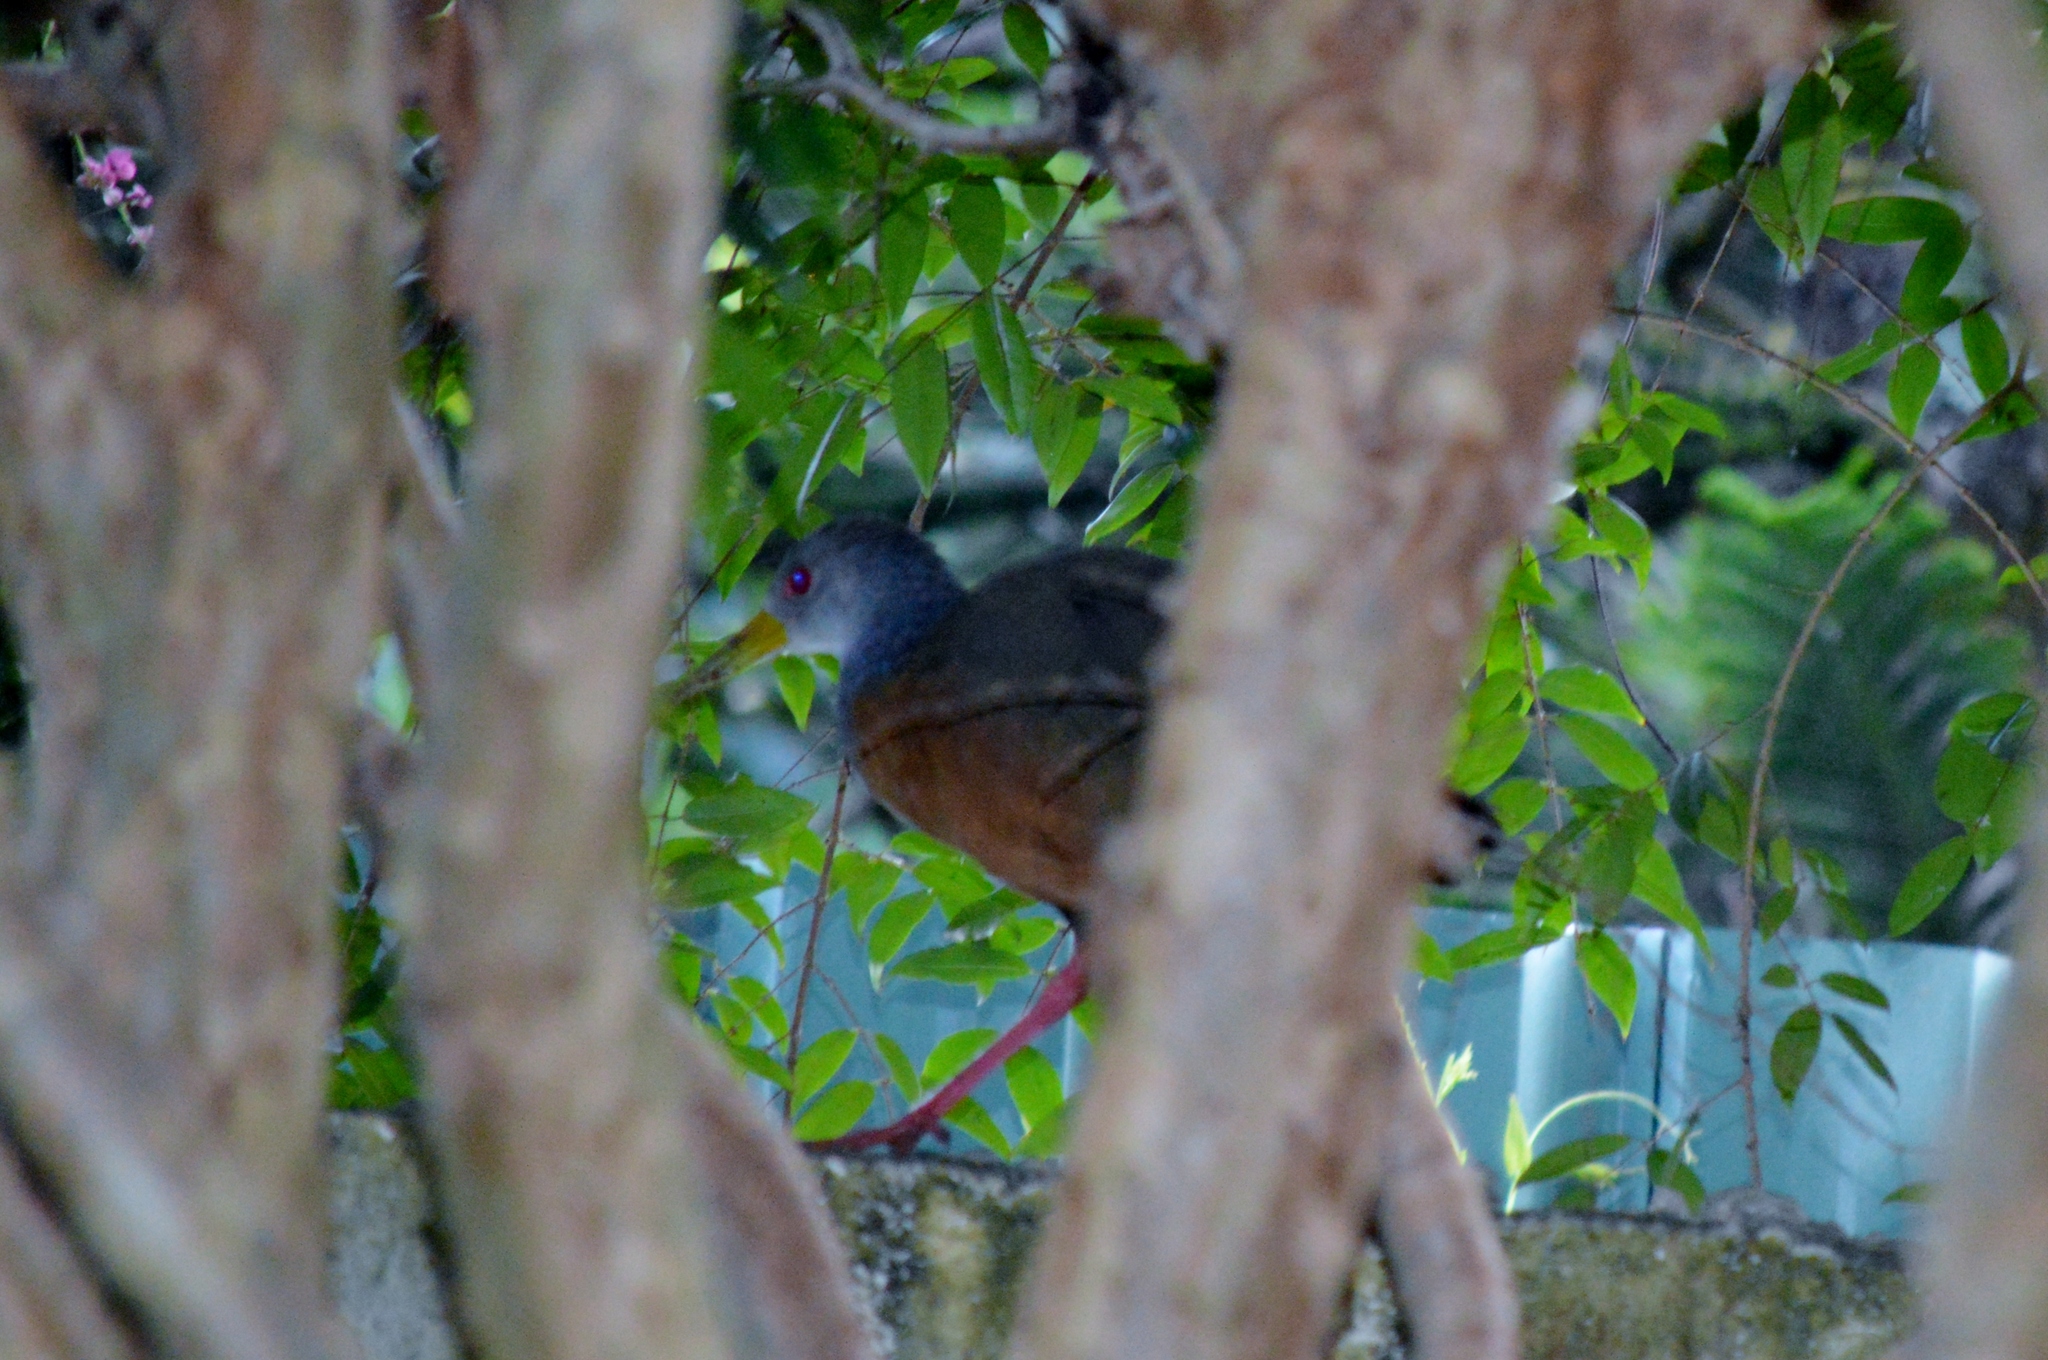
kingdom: Animalia
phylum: Chordata
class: Aves
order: Gruiformes
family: Rallidae
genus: Aramides
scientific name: Aramides cajanea
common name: Gray-necked wood-rail
